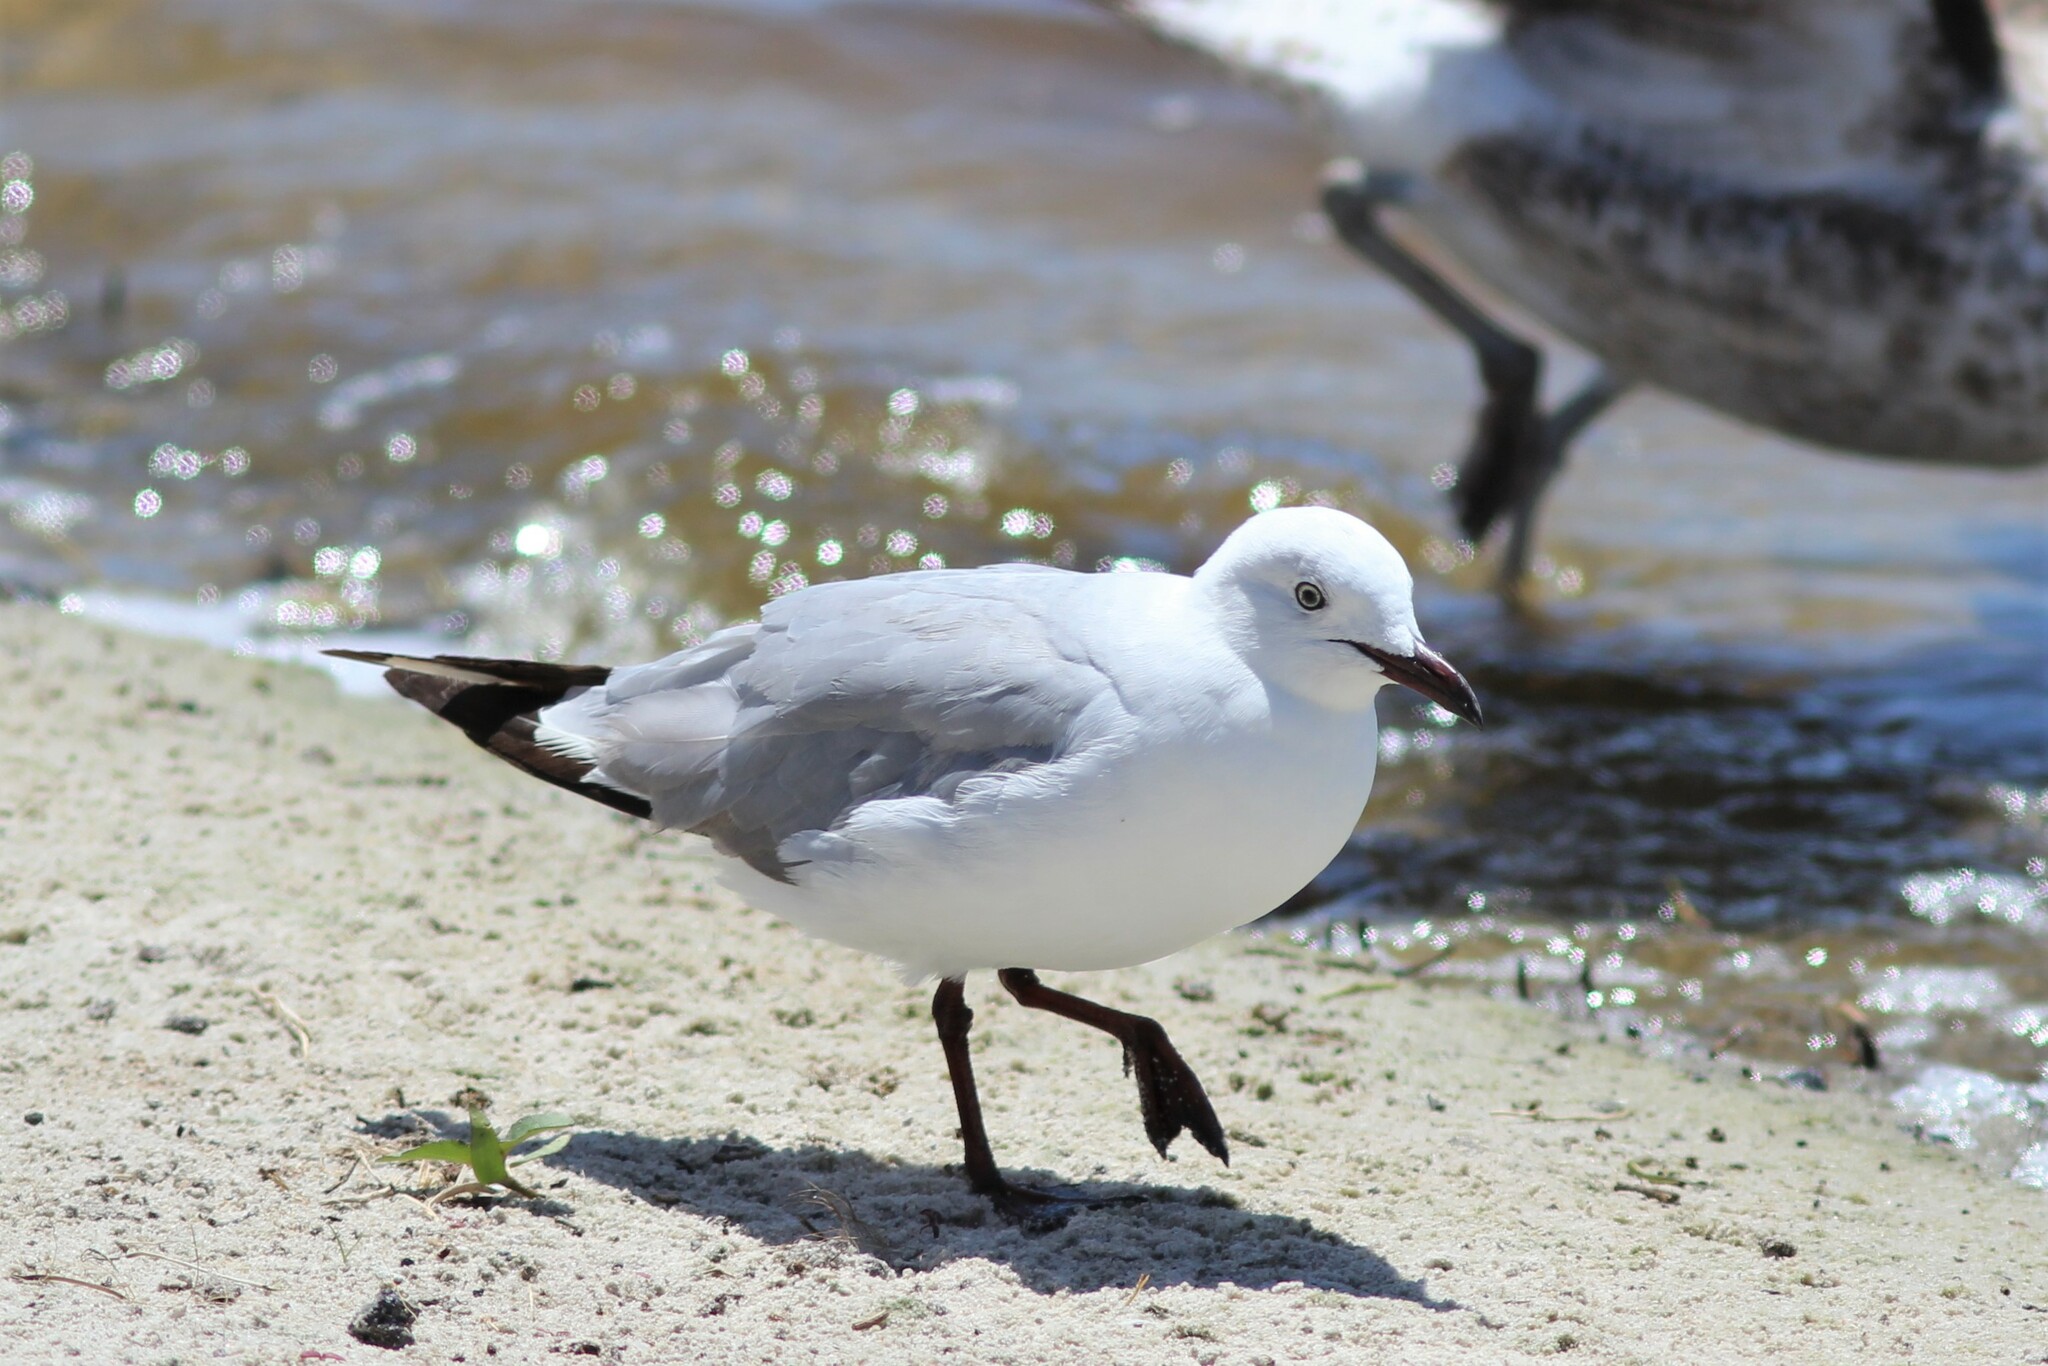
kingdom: Animalia
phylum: Chordata
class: Aves
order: Charadriiformes
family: Laridae
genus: Chroicocephalus
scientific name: Chroicocephalus cirrocephalus
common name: Grey-headed gull
